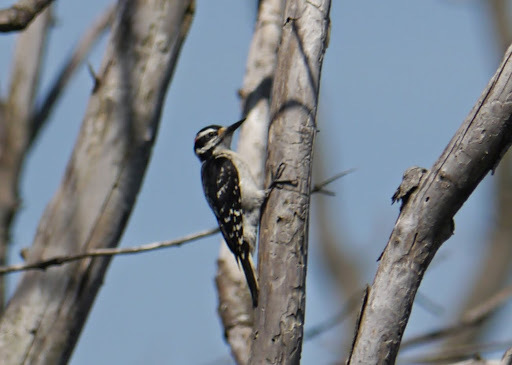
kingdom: Animalia
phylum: Chordata
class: Aves
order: Piciformes
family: Picidae
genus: Leuconotopicus
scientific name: Leuconotopicus villosus
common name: Hairy woodpecker
